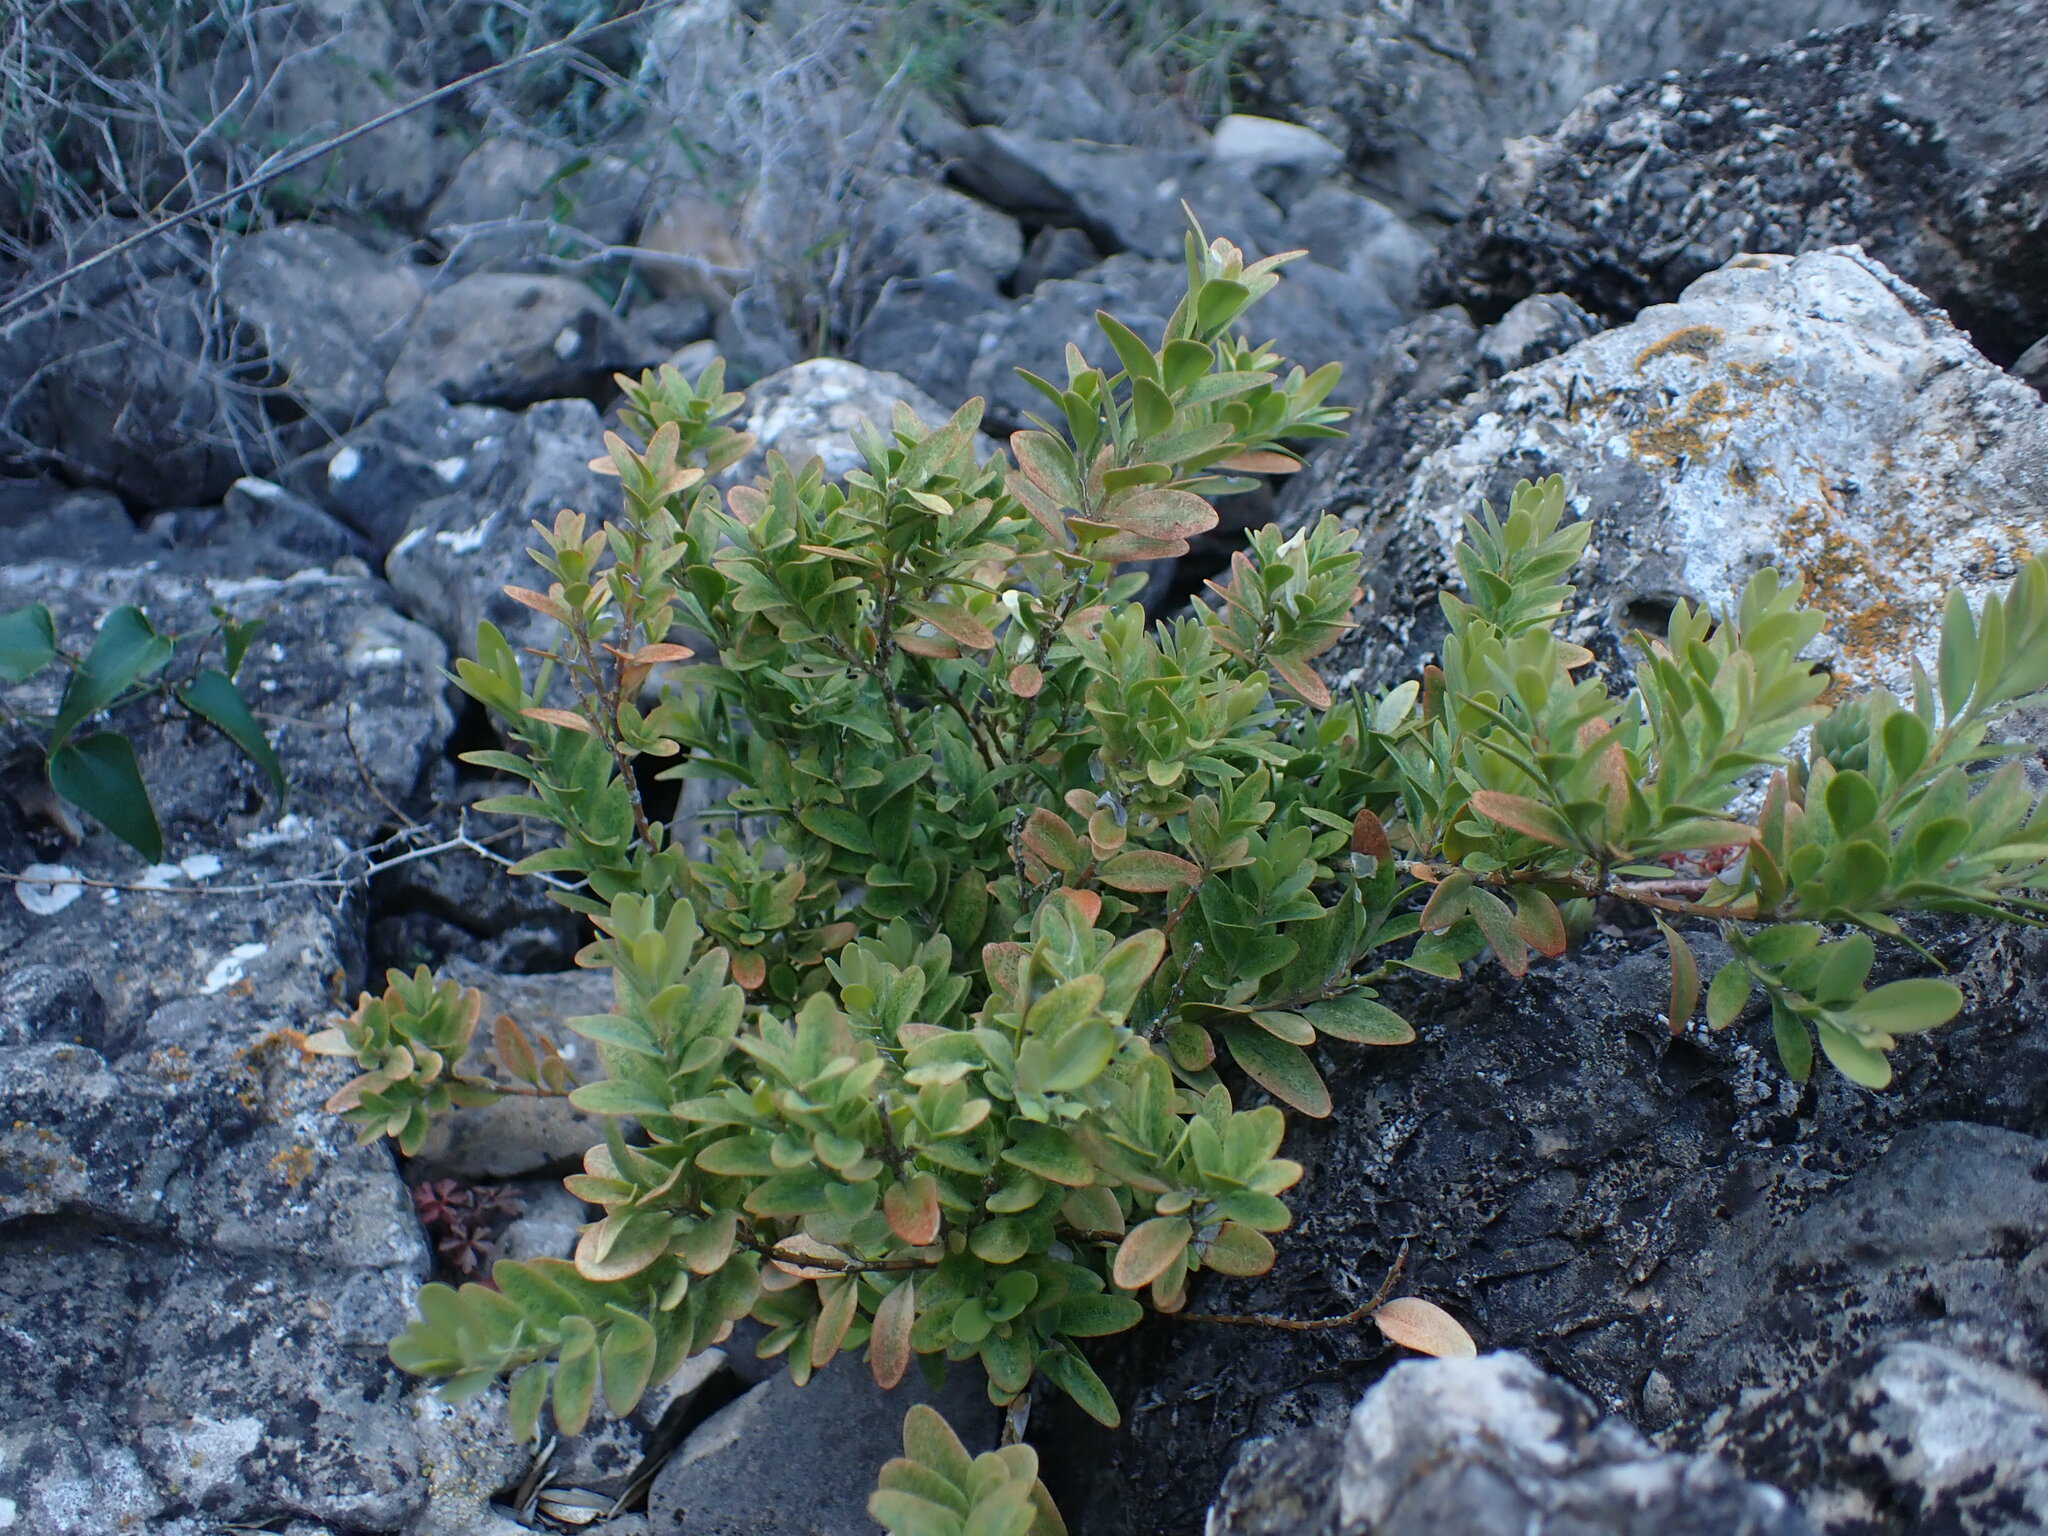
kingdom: Plantae
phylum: Tracheophyta
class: Magnoliopsida
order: Buxales
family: Buxaceae
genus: Buxus
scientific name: Buxus sempervirens
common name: Box
